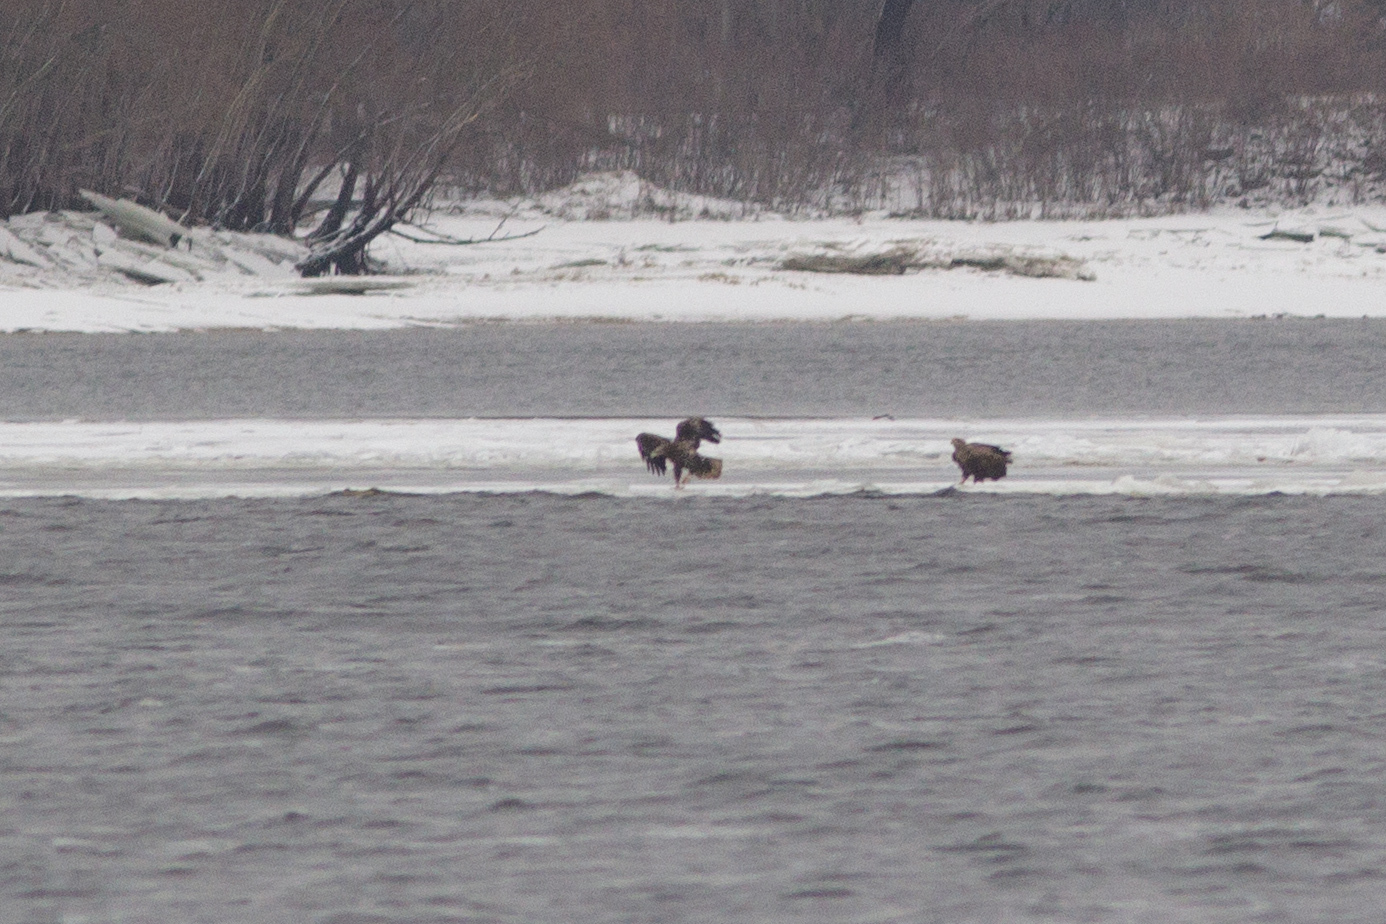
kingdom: Animalia
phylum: Chordata
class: Aves
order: Accipitriformes
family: Accipitridae
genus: Haliaeetus
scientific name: Haliaeetus albicilla
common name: White-tailed eagle
